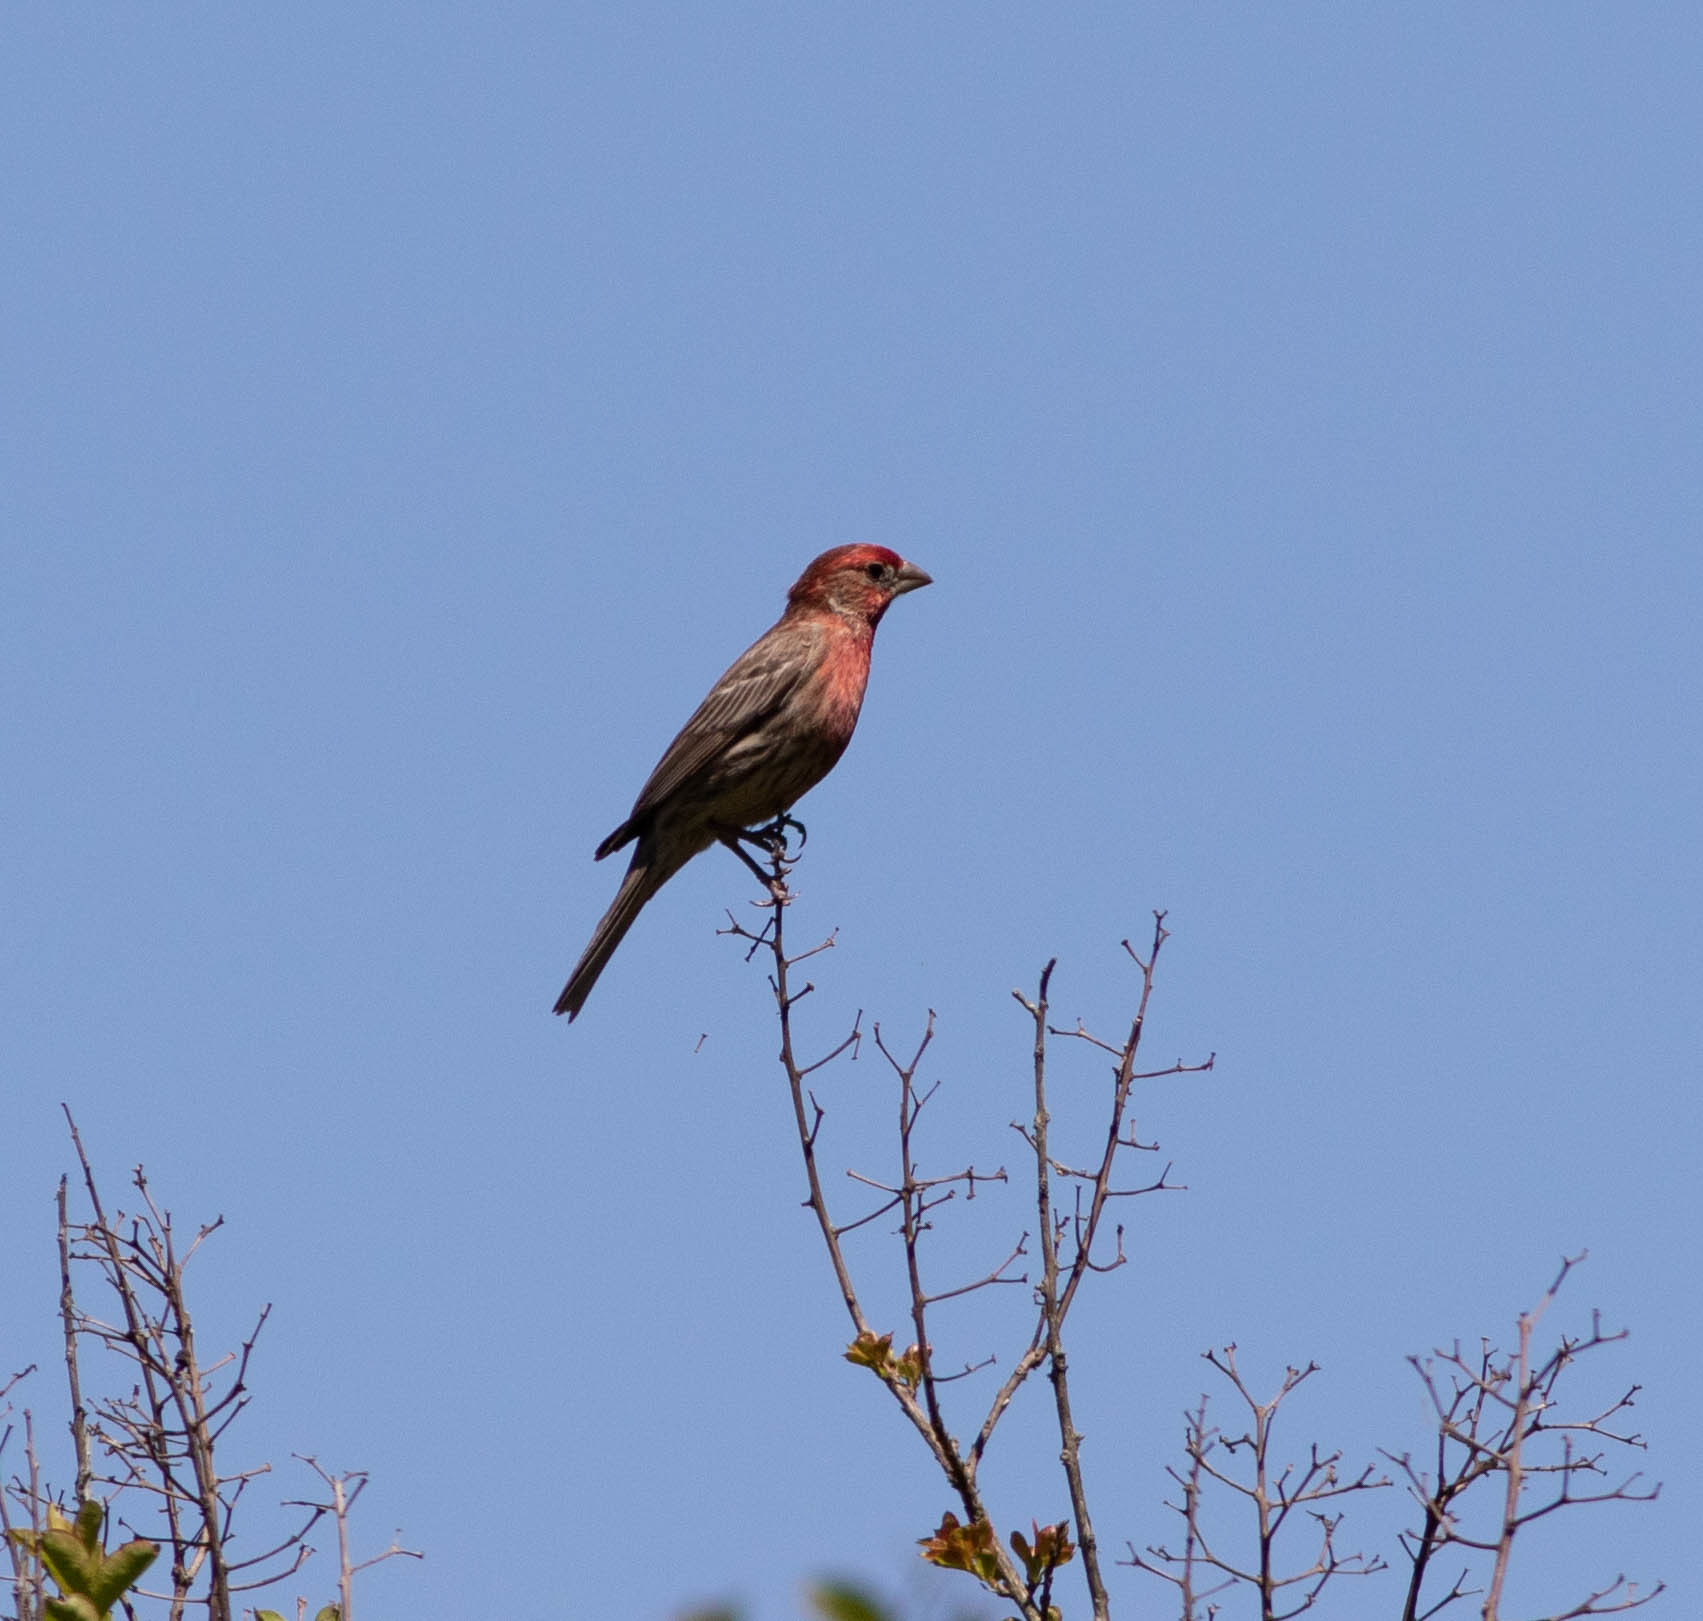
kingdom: Animalia
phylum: Chordata
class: Aves
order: Passeriformes
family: Fringillidae
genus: Haemorhous
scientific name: Haemorhous mexicanus
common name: House finch
